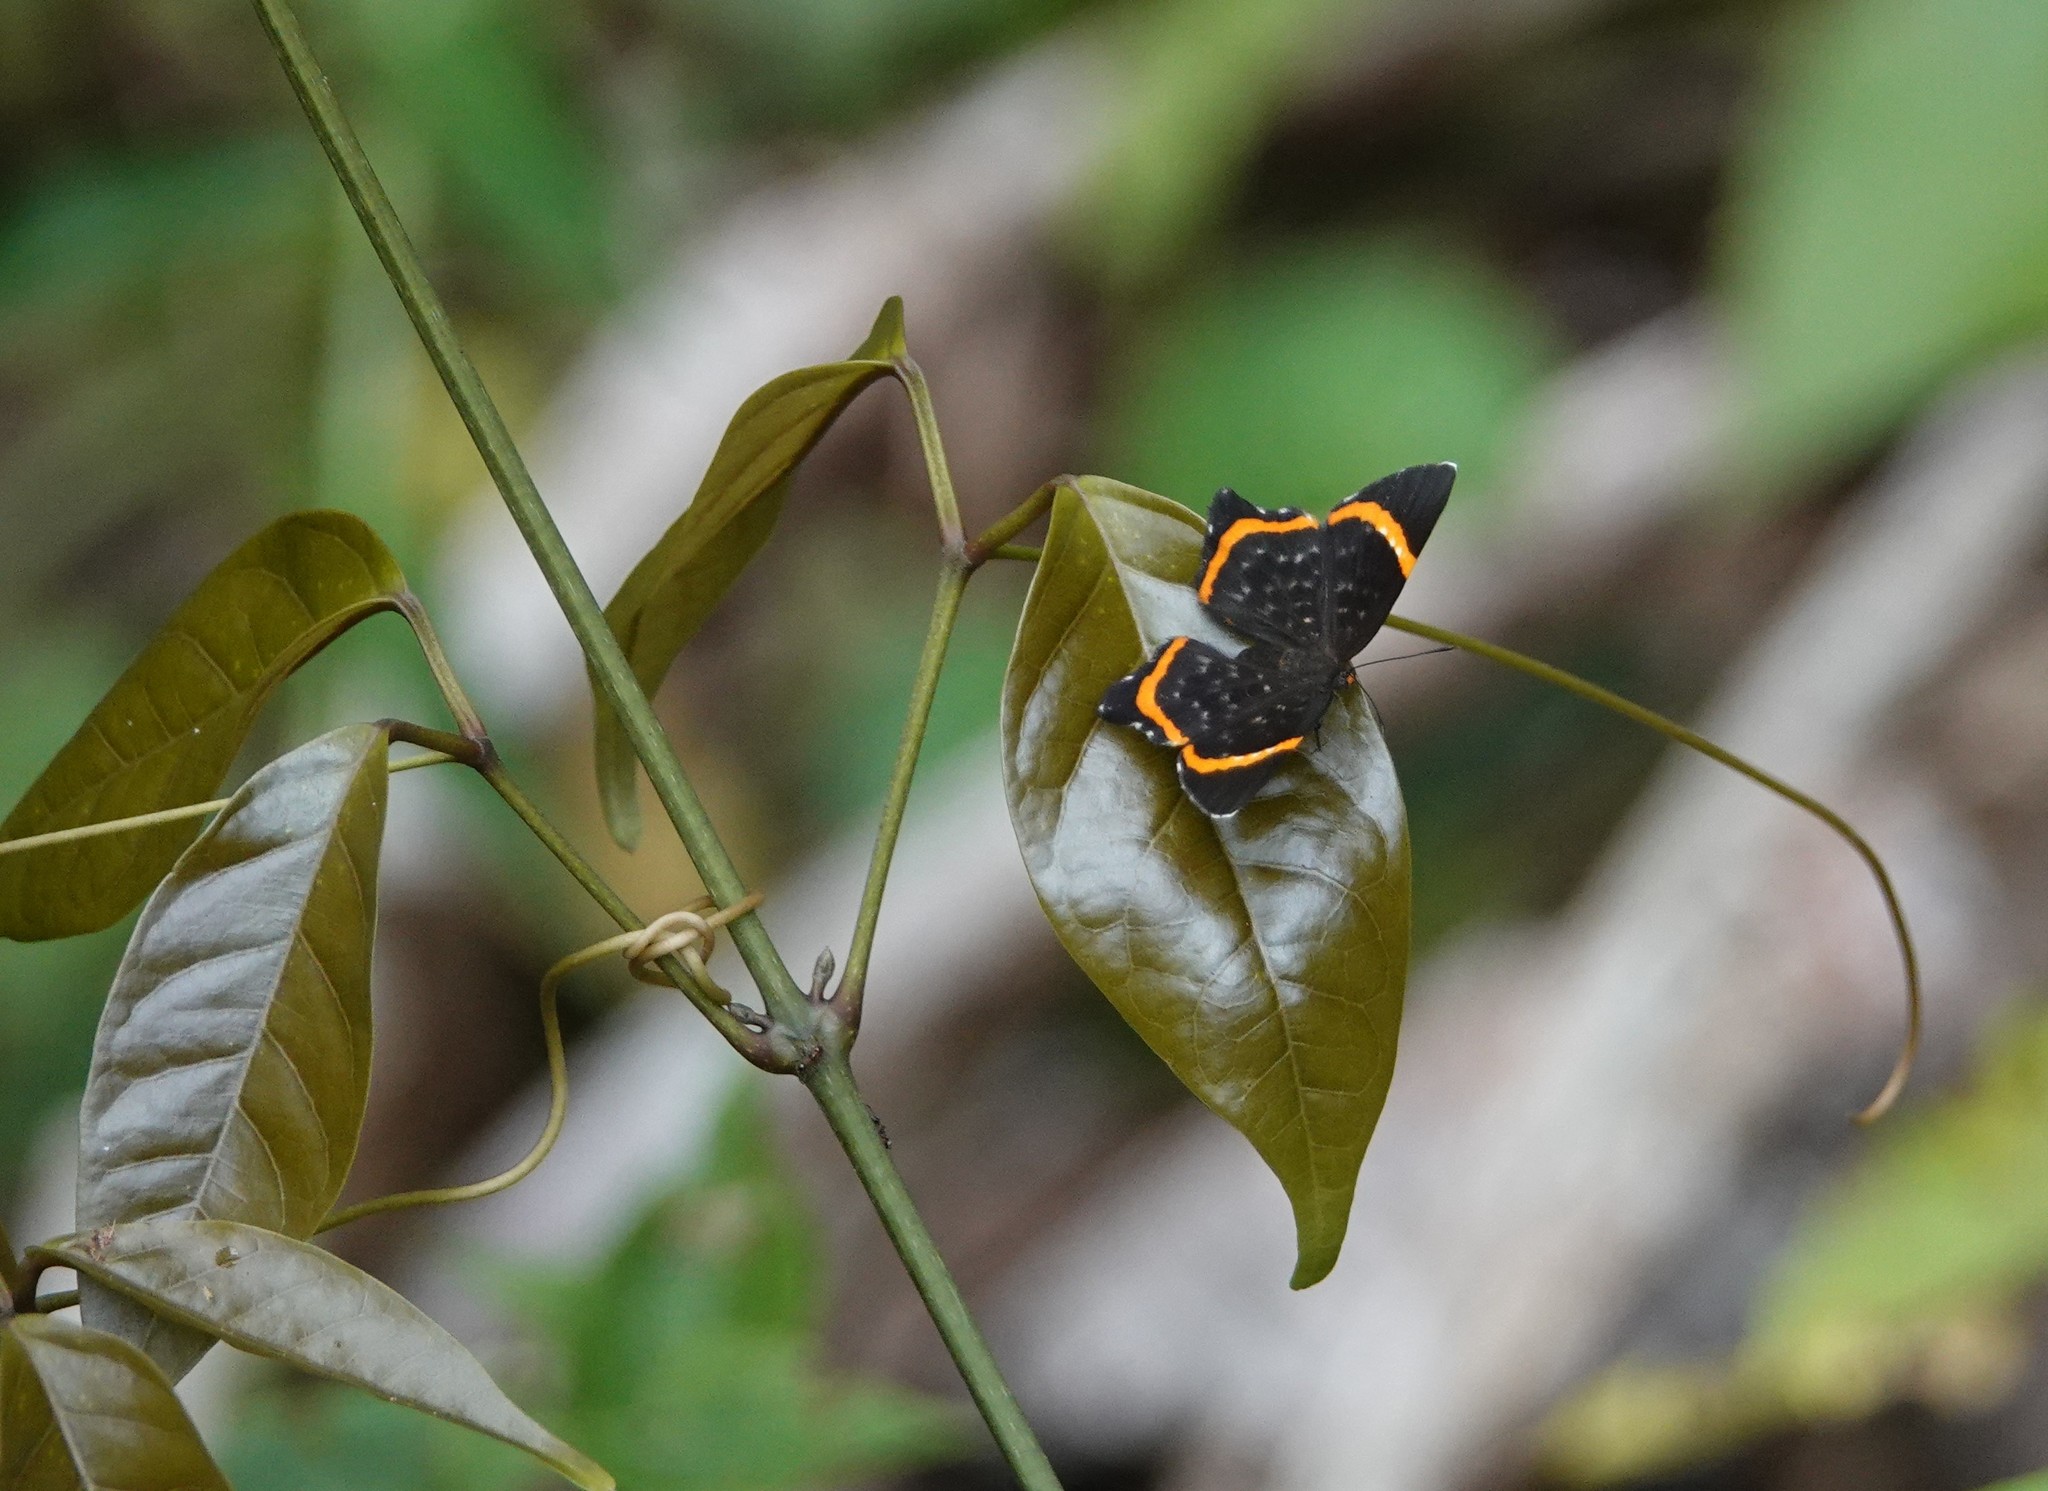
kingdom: Animalia
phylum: Arthropoda
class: Insecta
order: Lepidoptera
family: Riodinidae
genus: Riodina
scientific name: Riodina lysippus
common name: Lysippus metalmark
